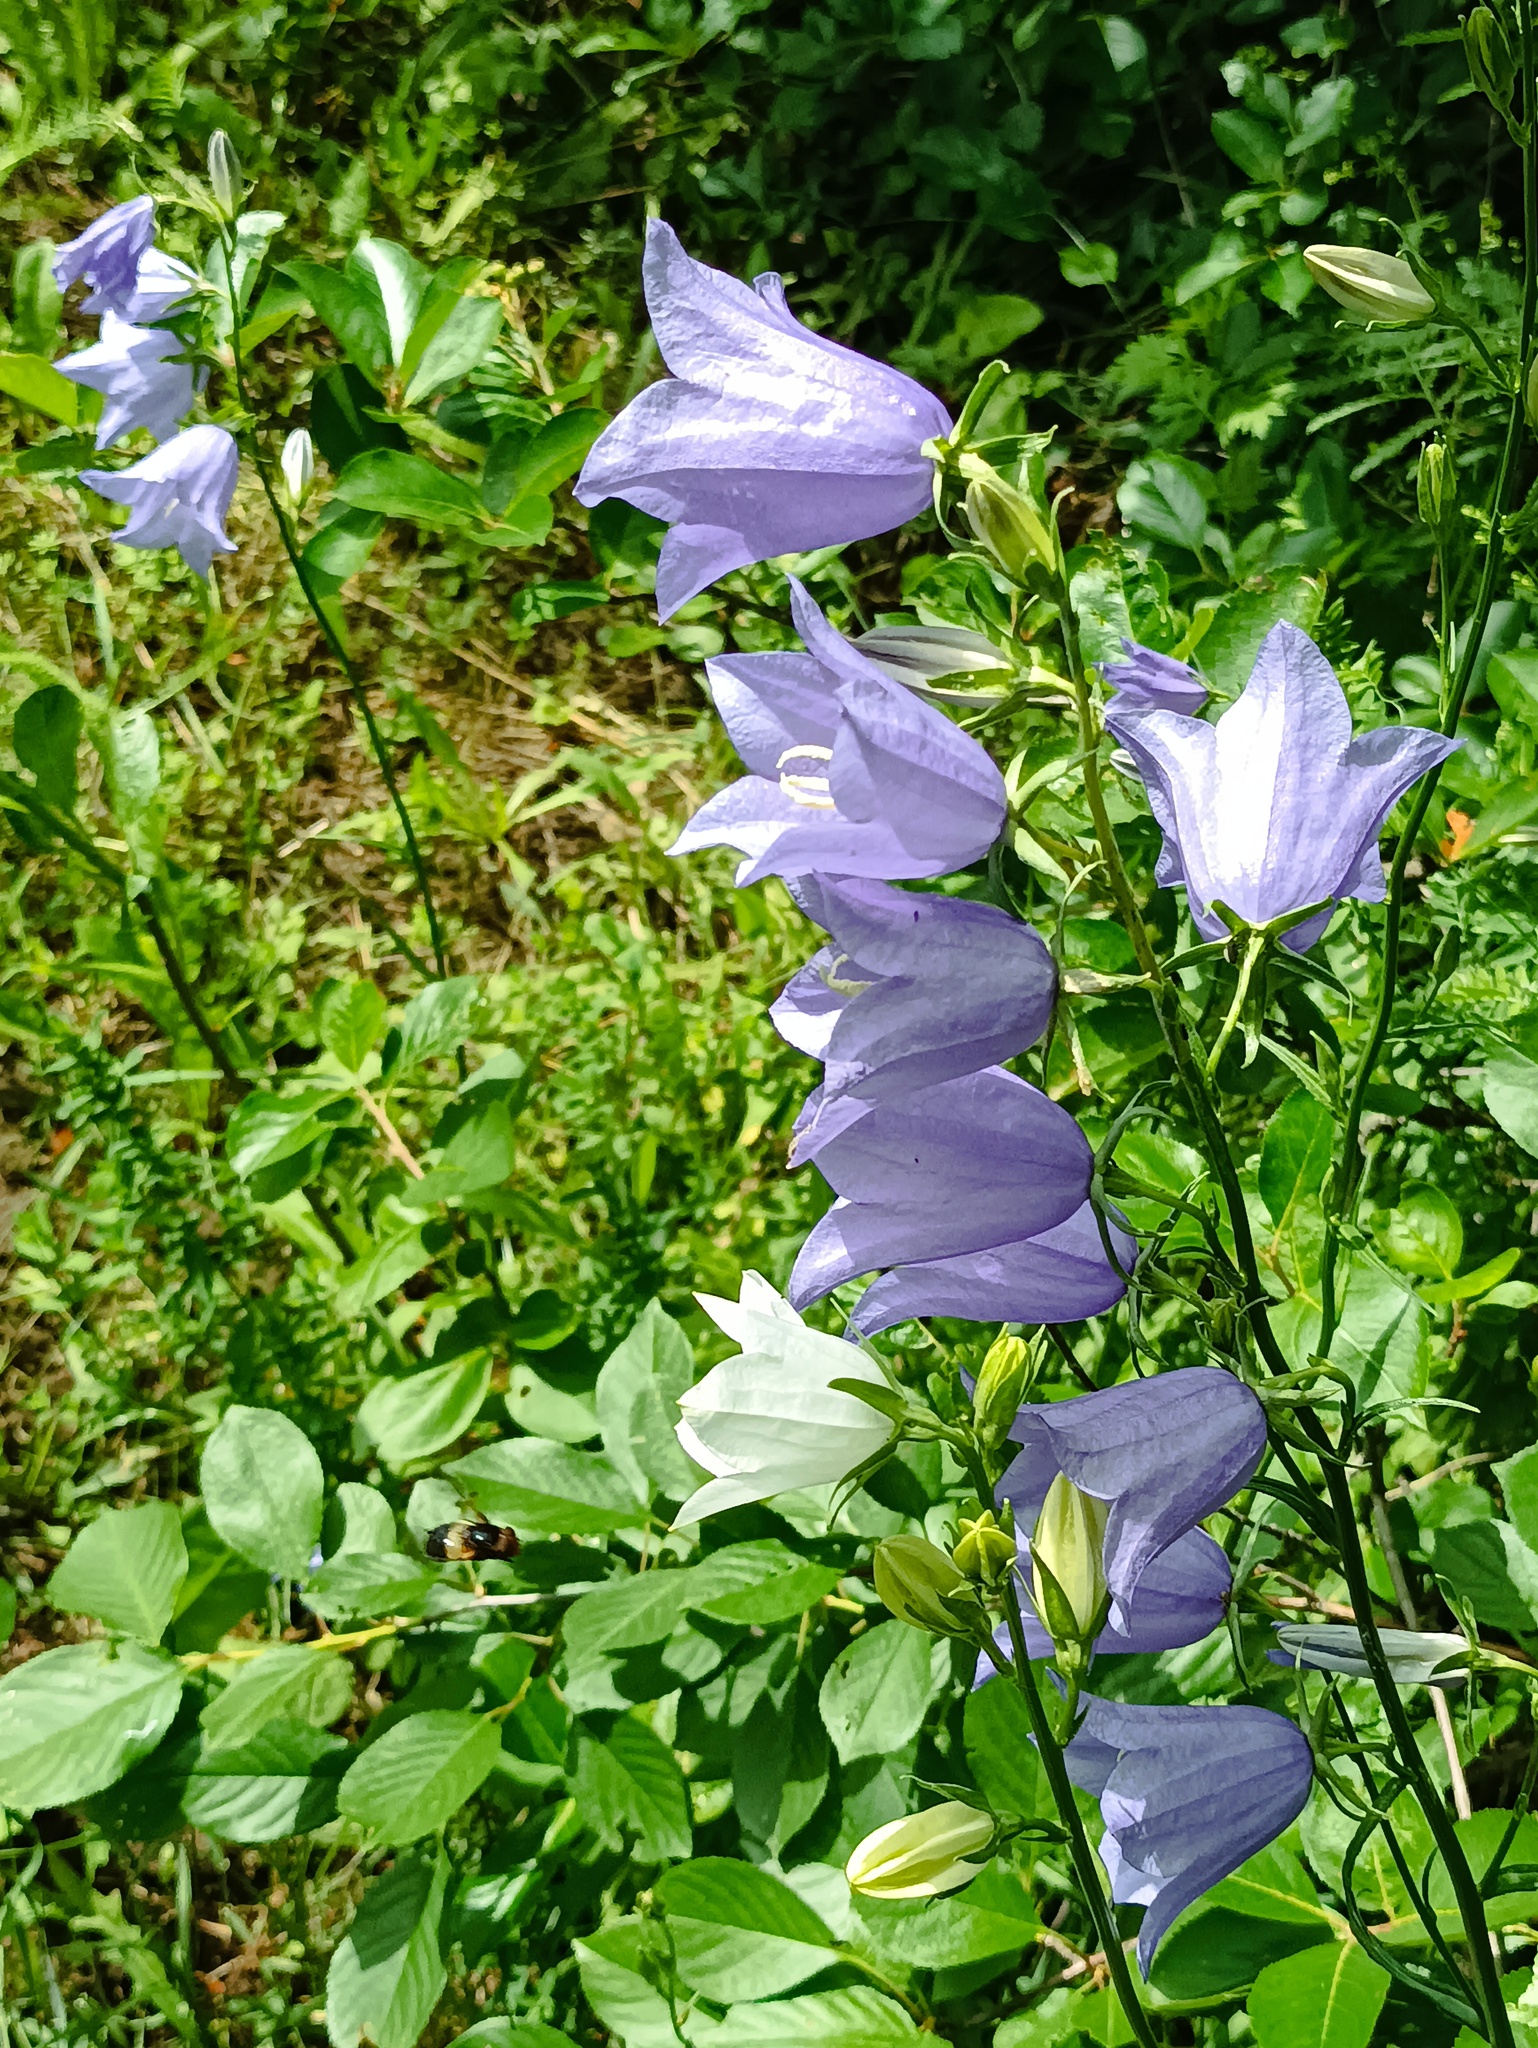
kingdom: Plantae
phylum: Tracheophyta
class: Magnoliopsida
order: Asterales
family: Campanulaceae
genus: Campanula
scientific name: Campanula persicifolia
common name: Peach-leaved bellflower
